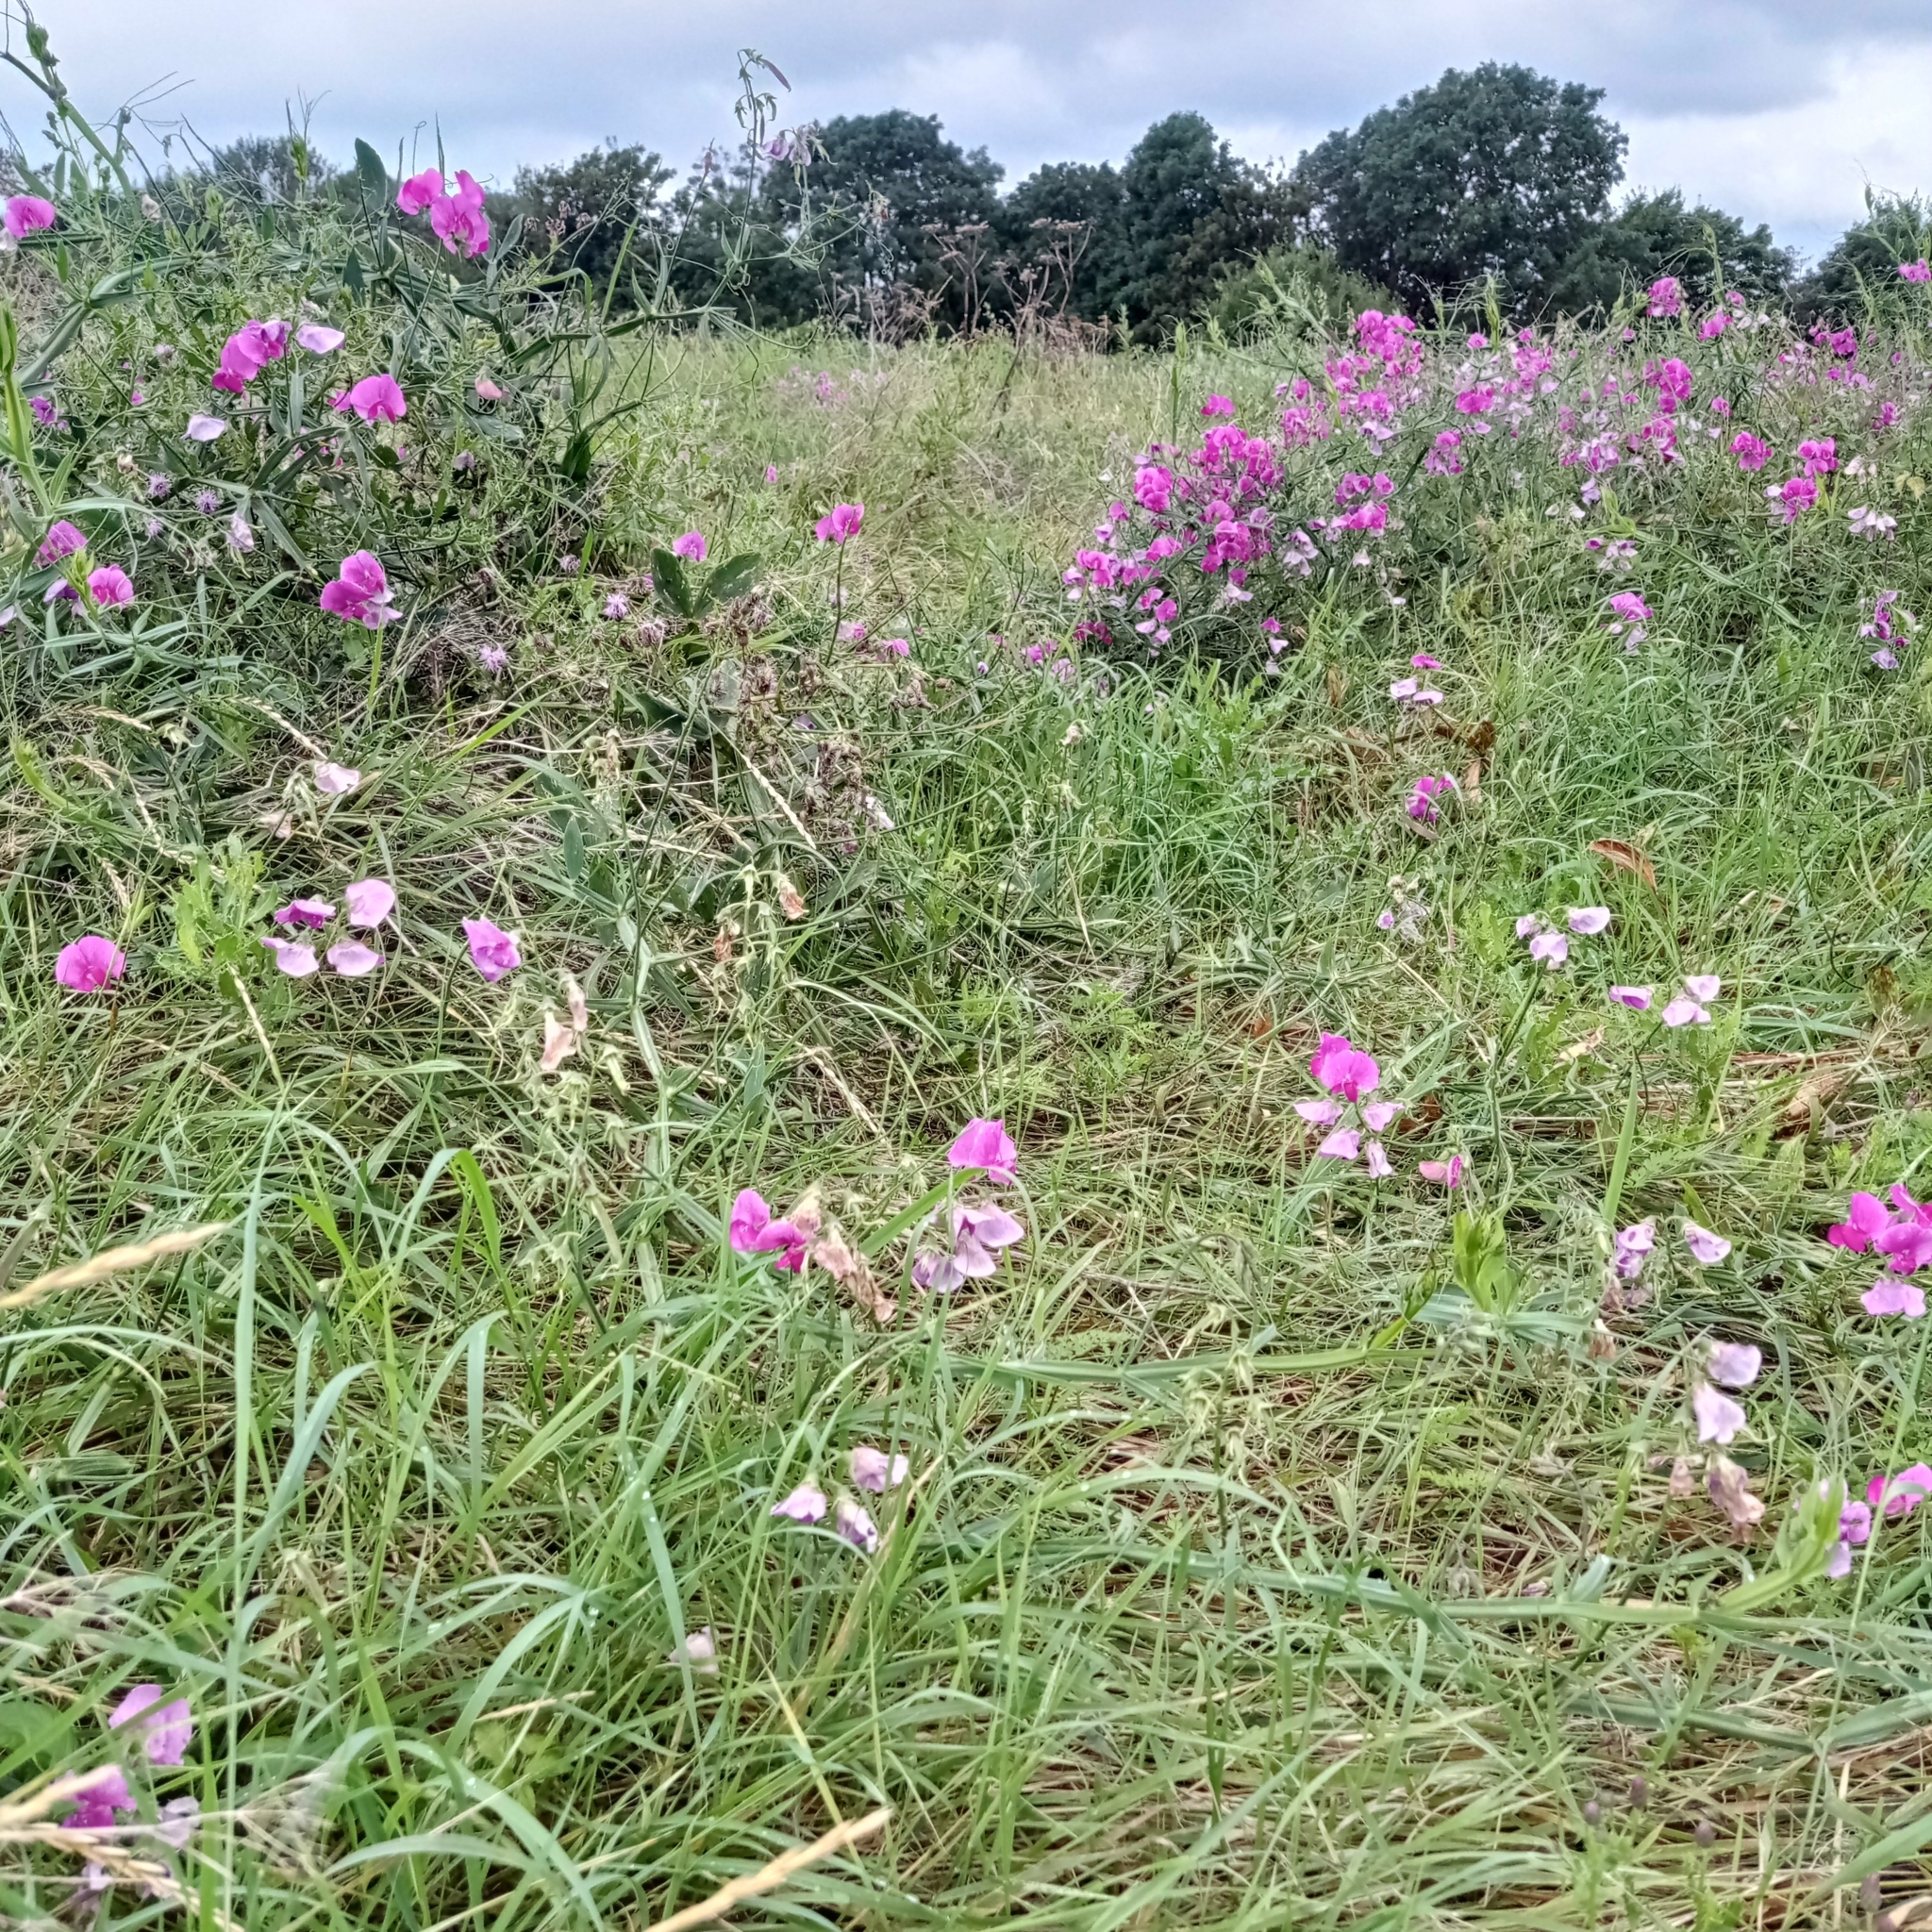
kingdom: Plantae
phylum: Tracheophyta
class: Magnoliopsida
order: Fabales
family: Fabaceae
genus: Lathyrus
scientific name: Lathyrus latifolius
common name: Perennial pea
